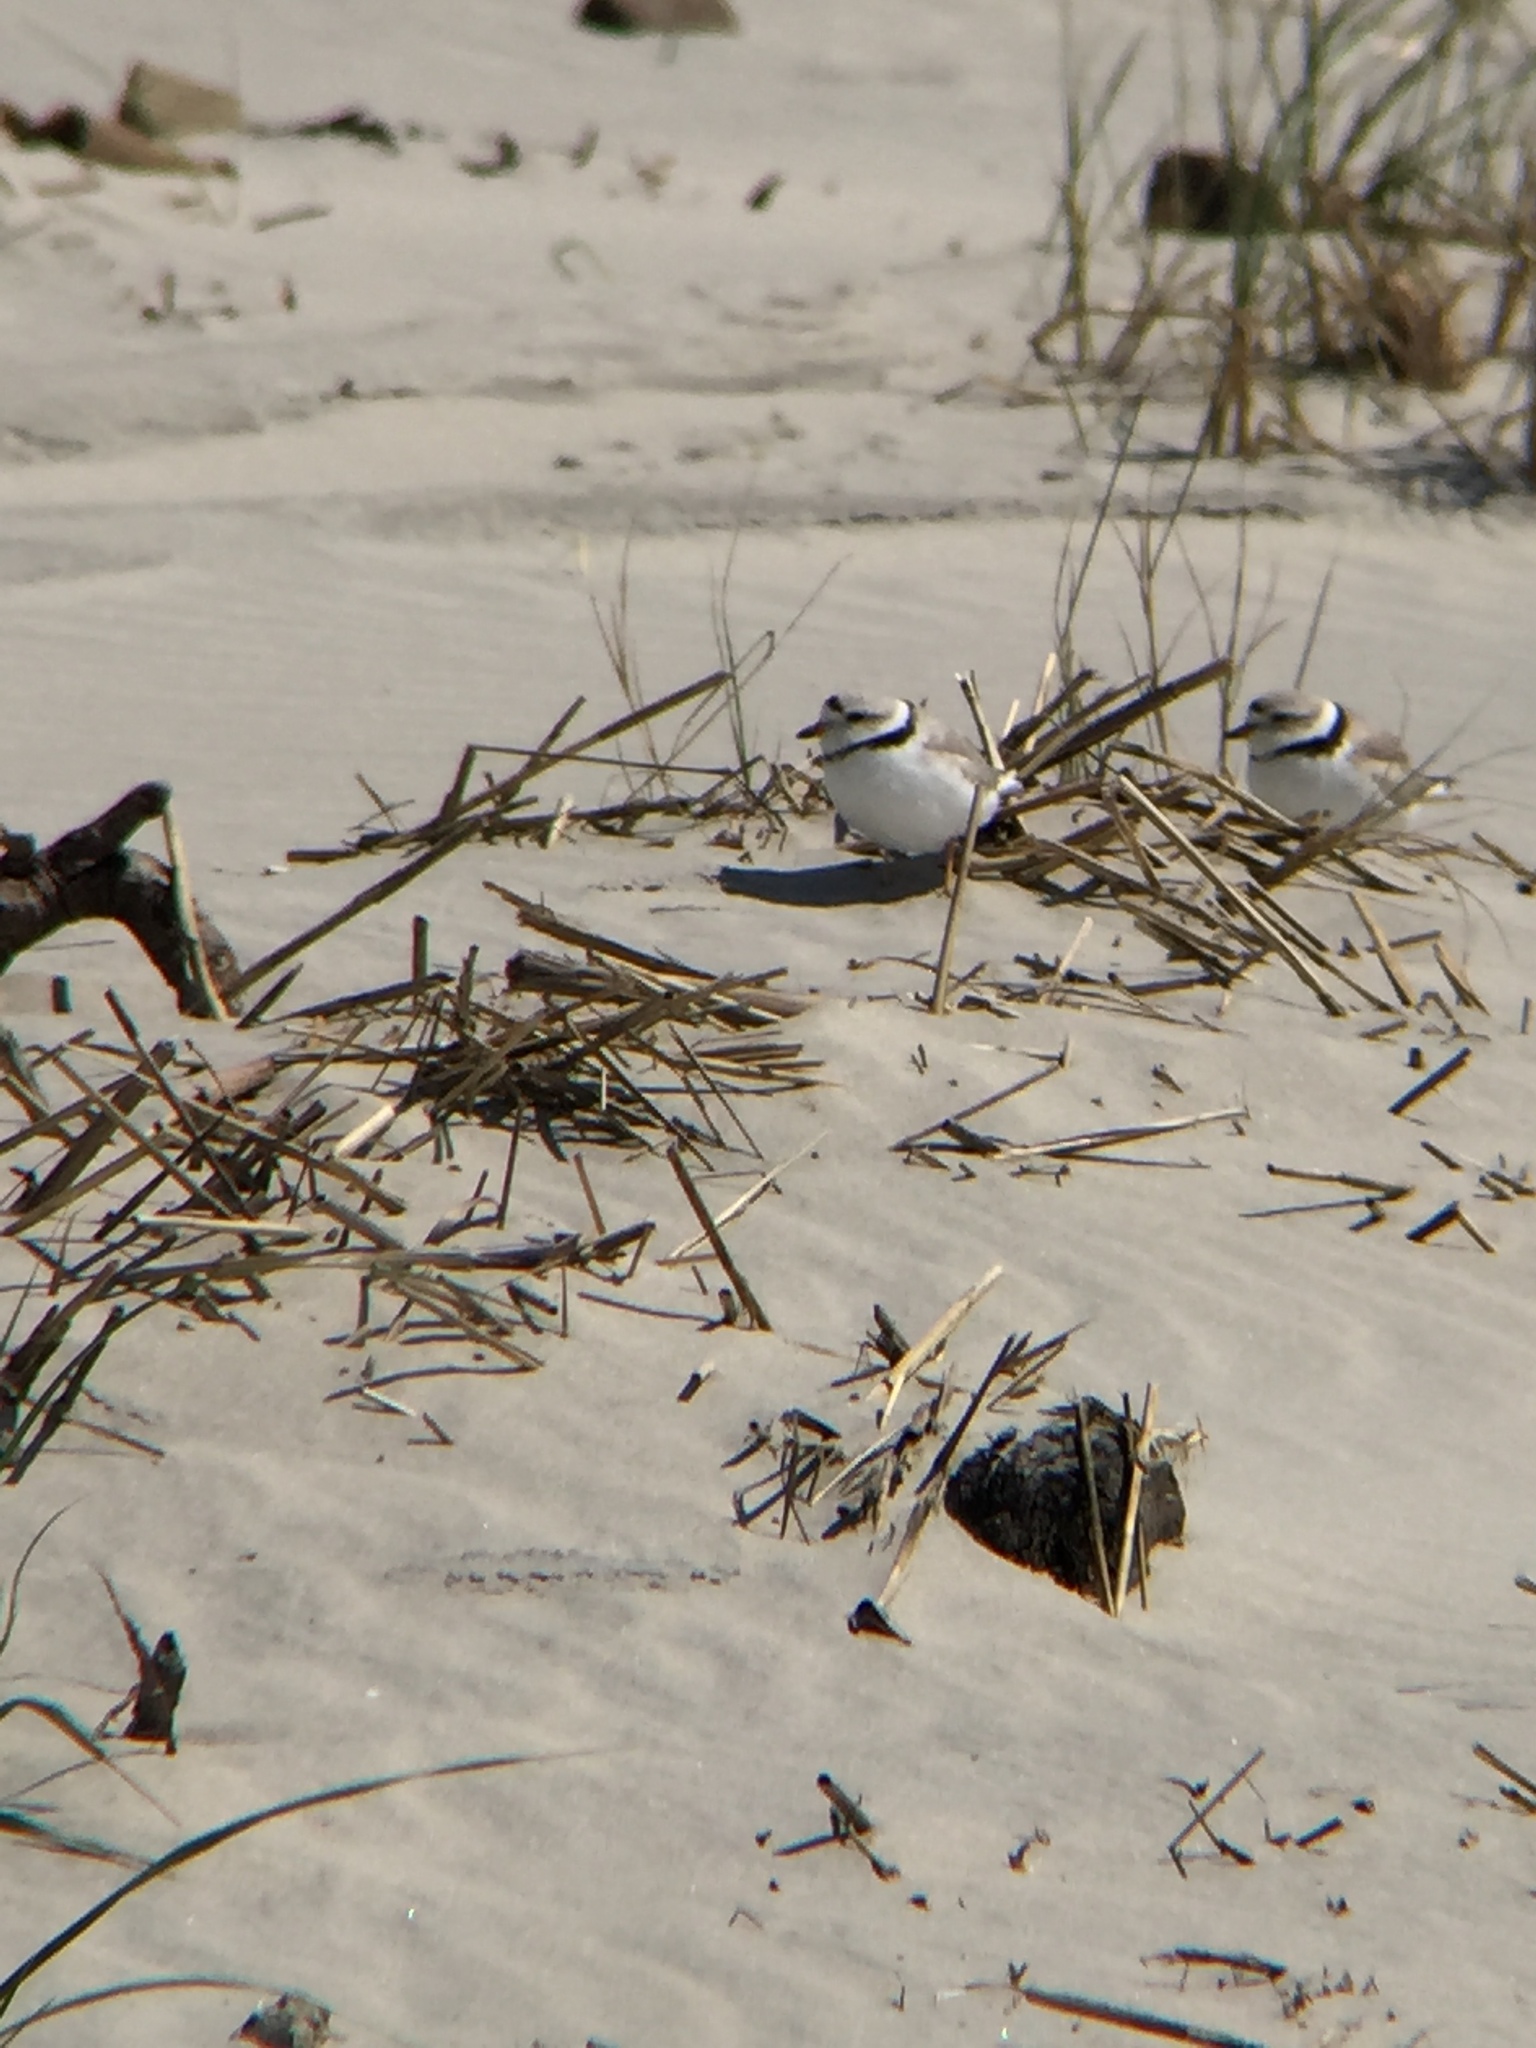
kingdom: Animalia
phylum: Chordata
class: Aves
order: Charadriiformes
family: Charadriidae
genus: Charadrius
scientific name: Charadrius melodus
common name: Piping plover
